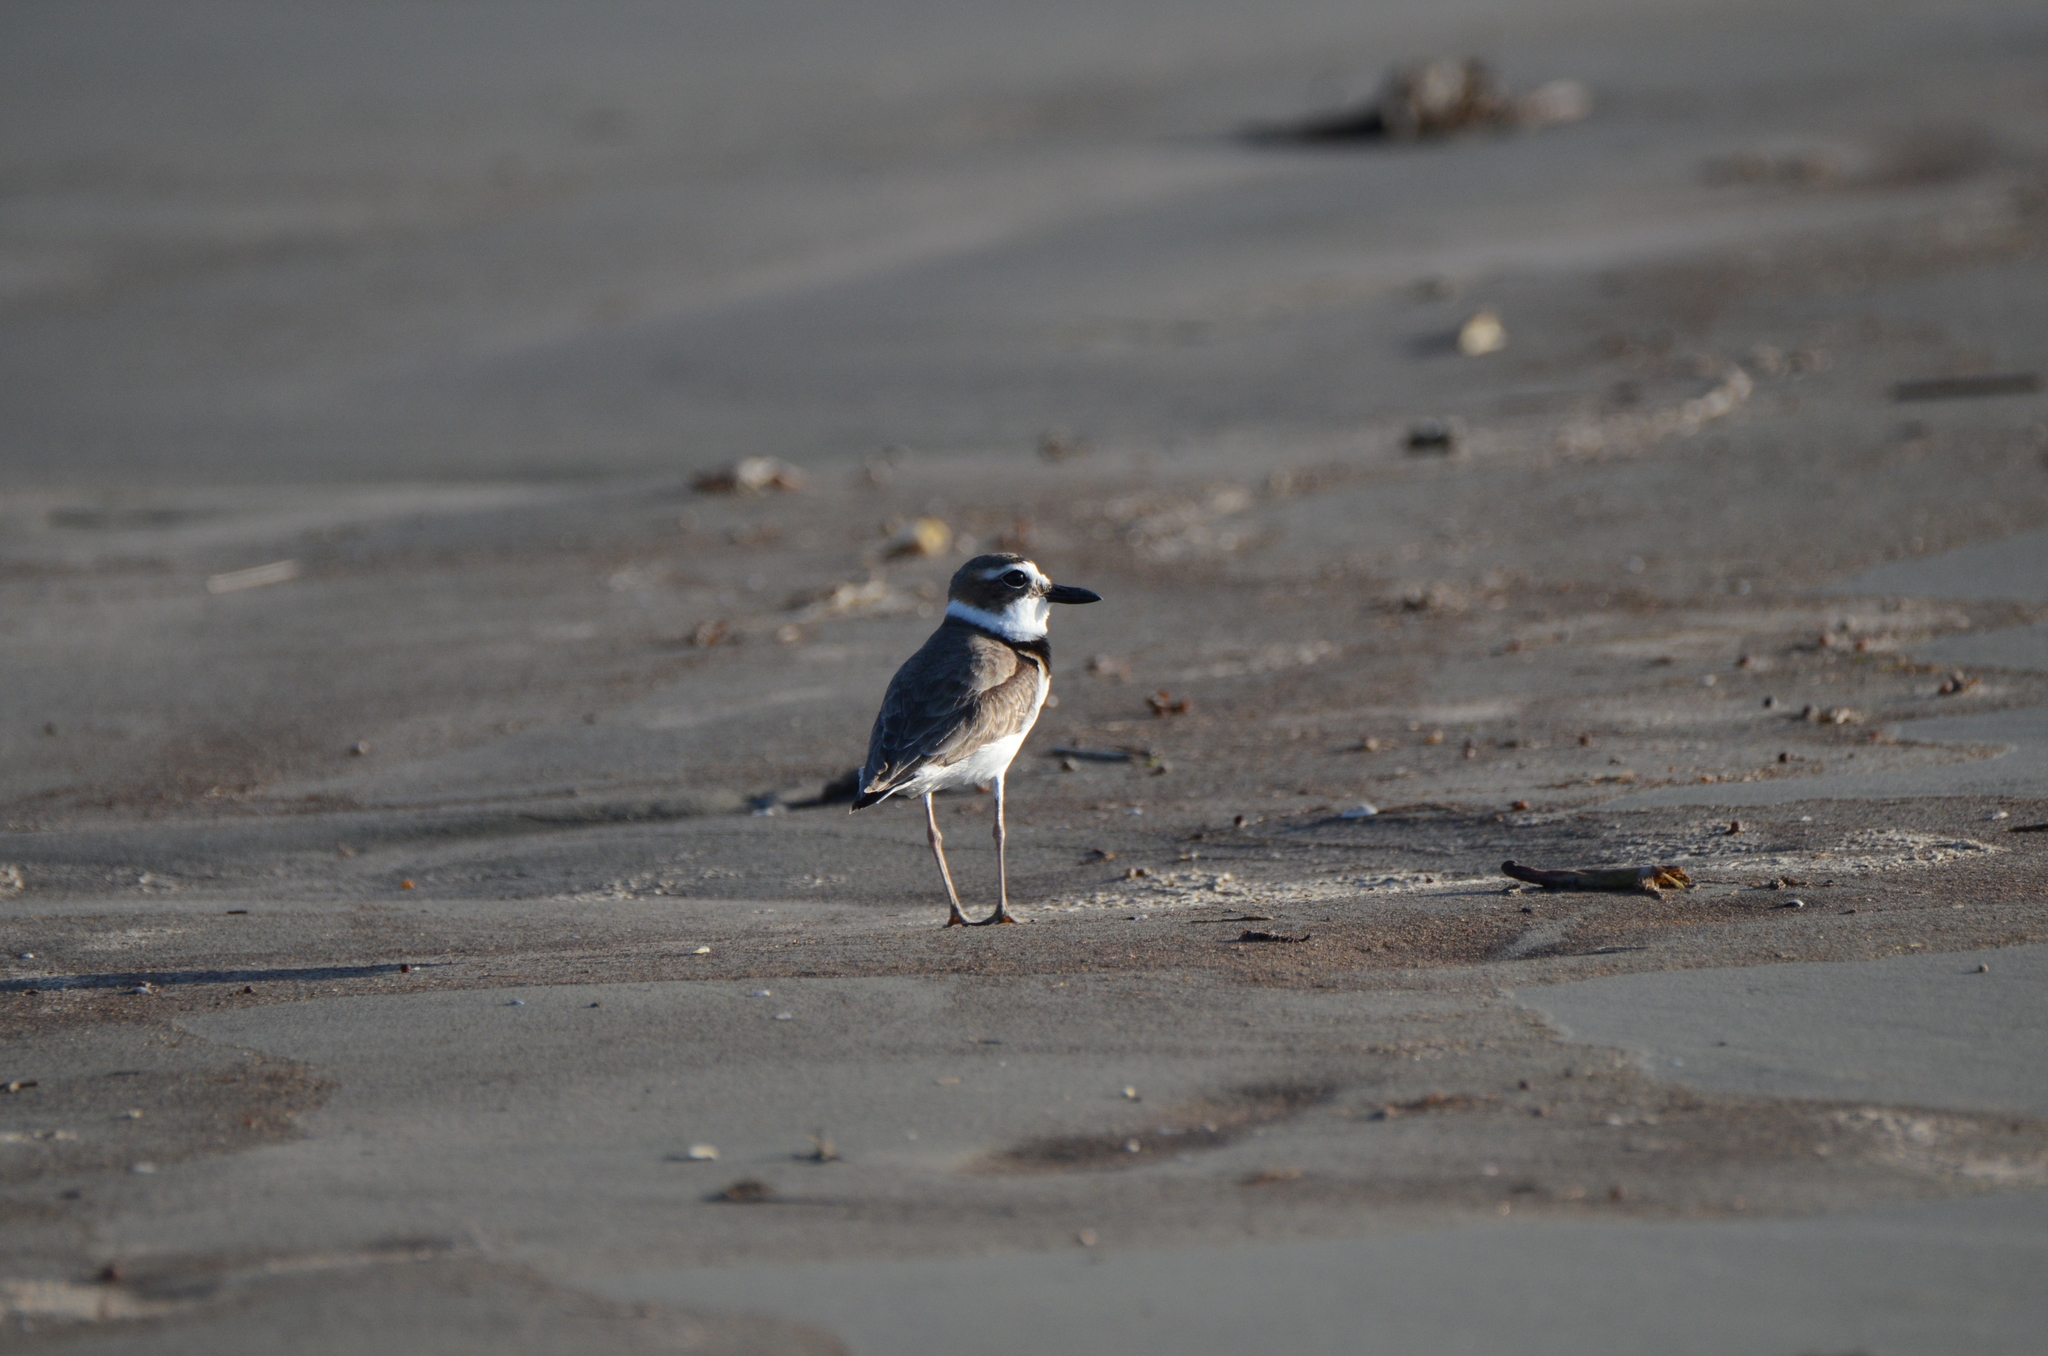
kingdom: Animalia
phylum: Chordata
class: Aves
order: Charadriiformes
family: Charadriidae
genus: Anarhynchus
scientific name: Anarhynchus
